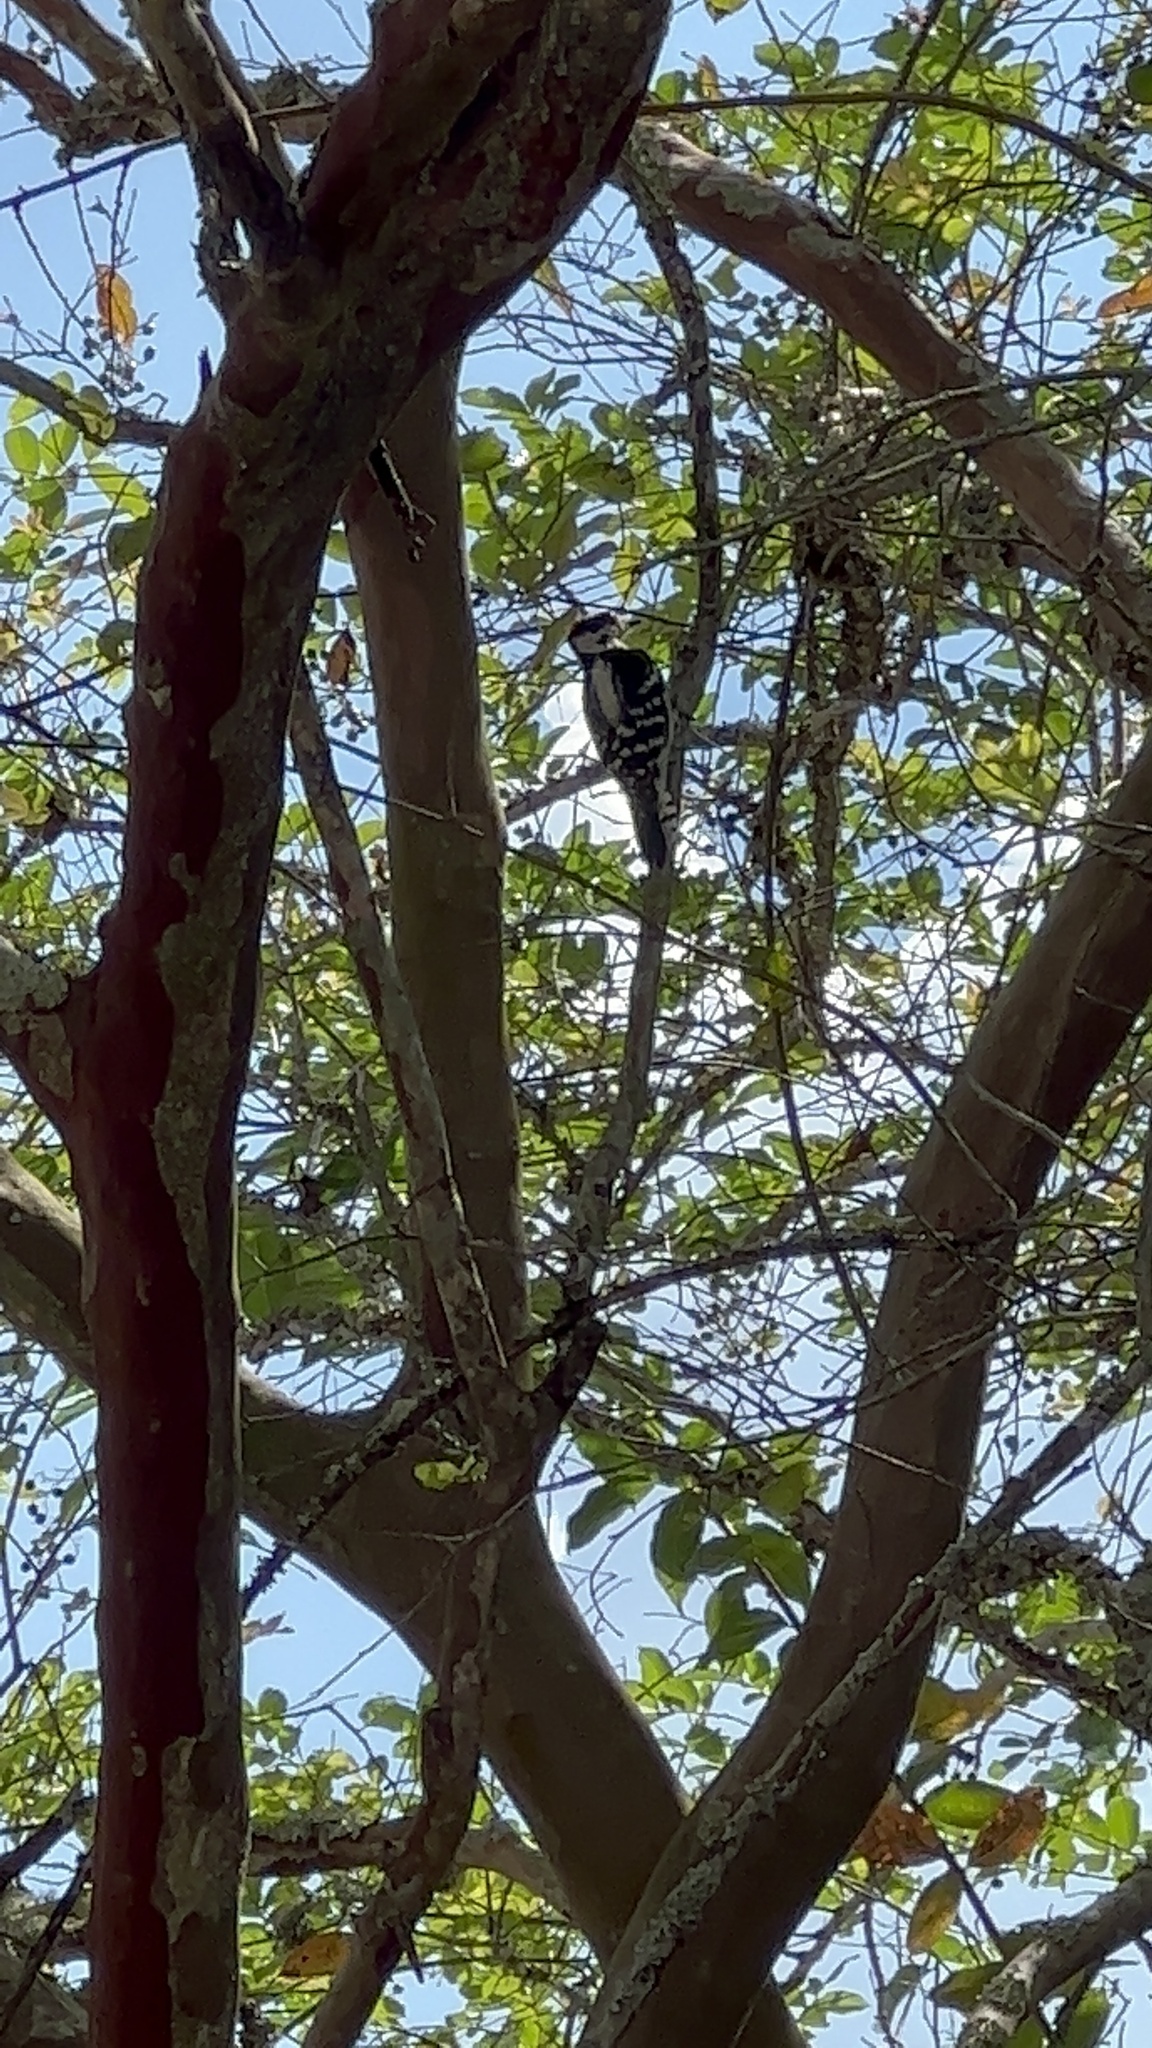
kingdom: Animalia
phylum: Chordata
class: Aves
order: Piciformes
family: Picidae
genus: Dryobates
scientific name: Dryobates pubescens
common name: Downy woodpecker
